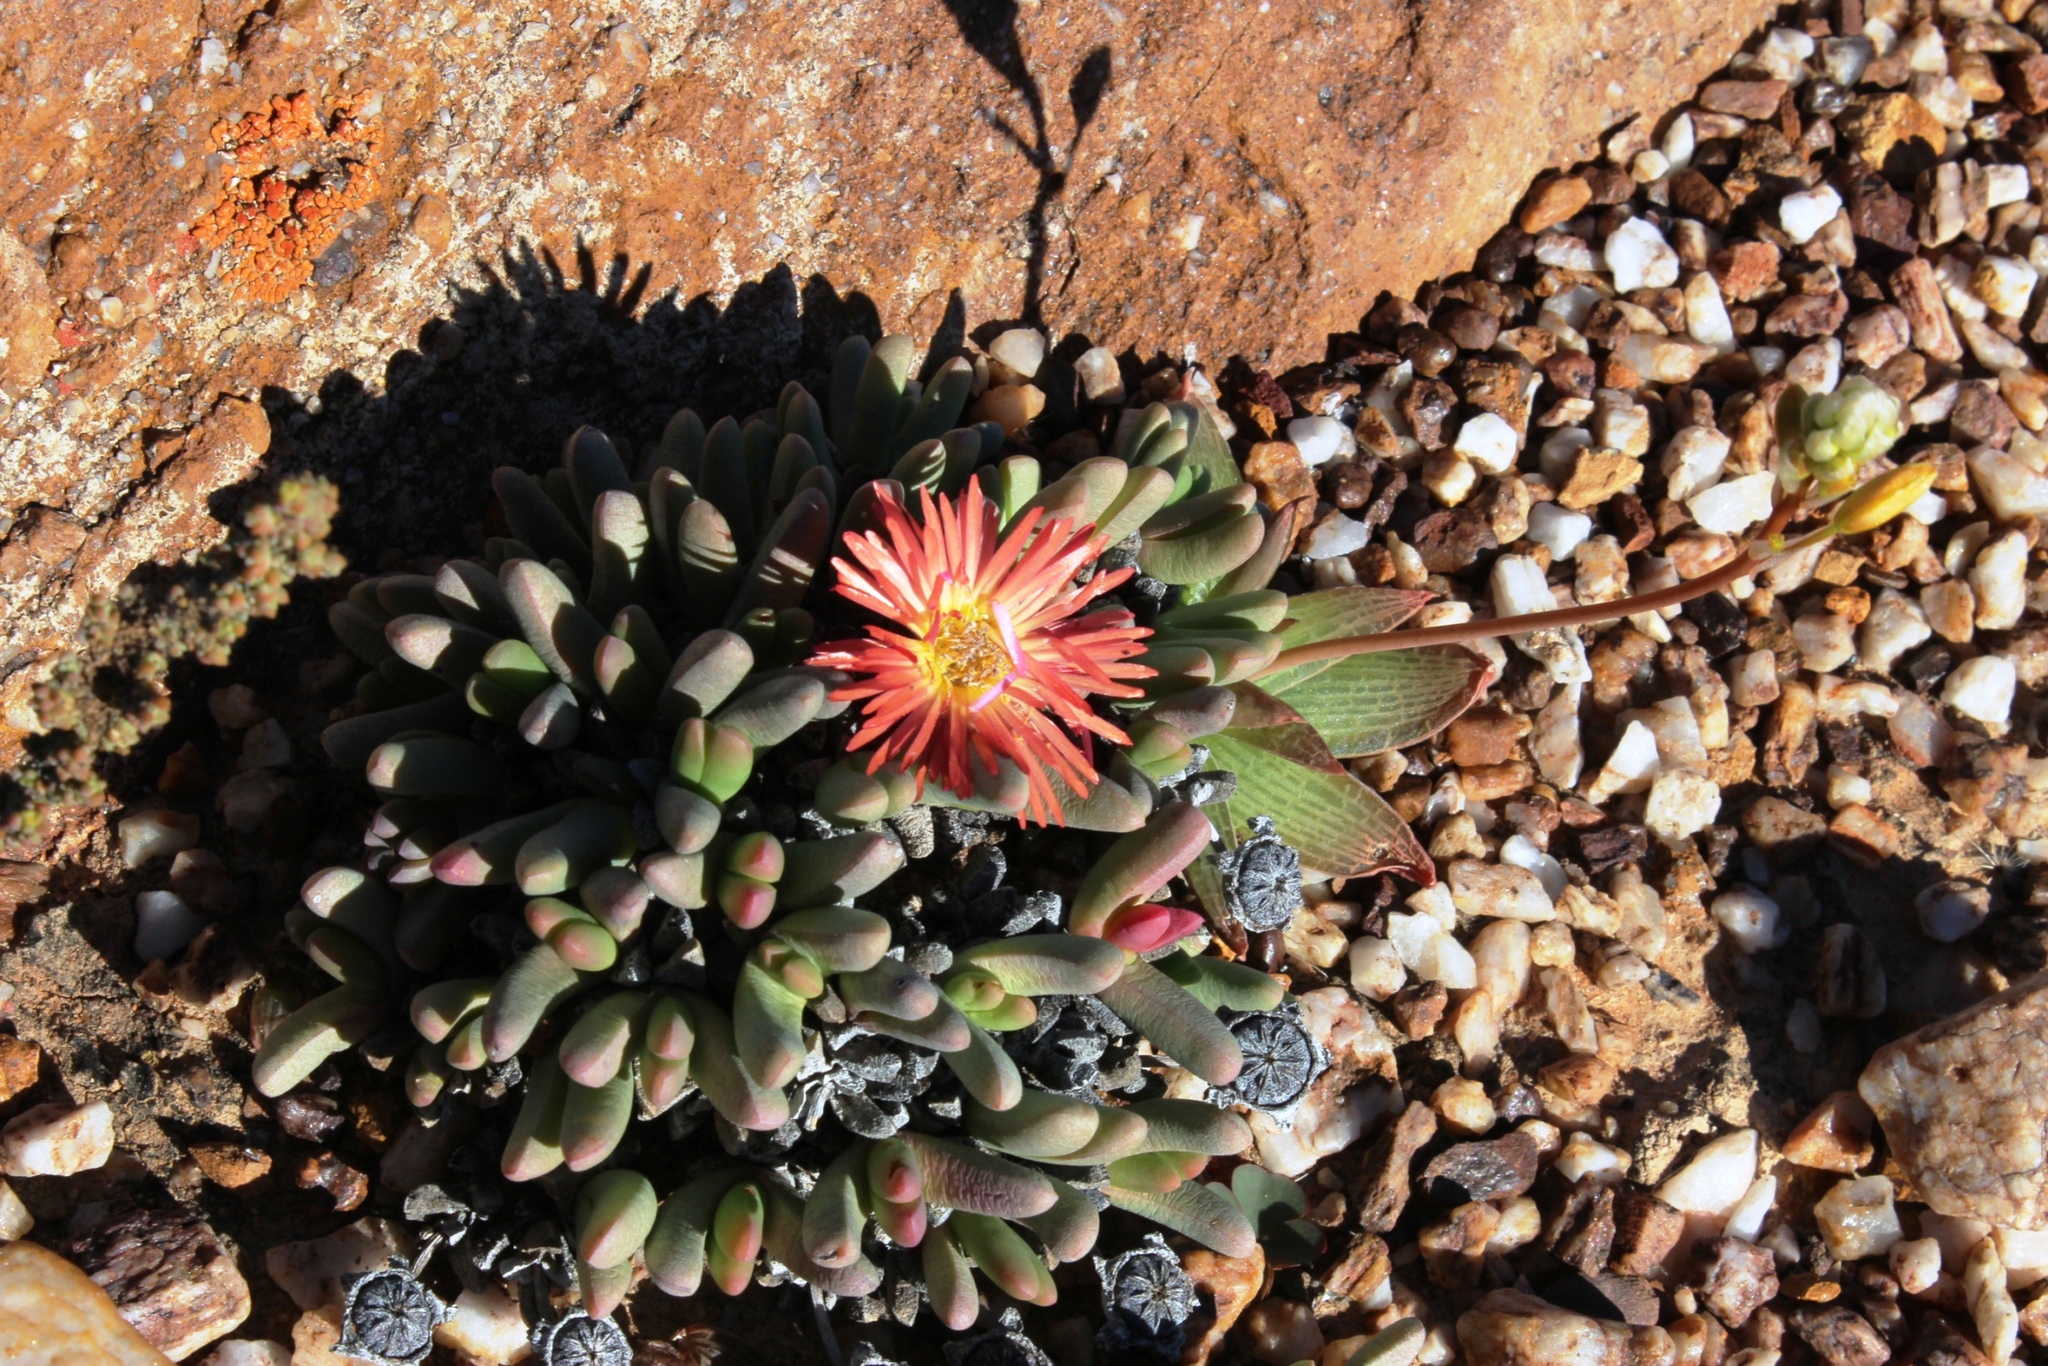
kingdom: Plantae
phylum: Tracheophyta
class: Magnoliopsida
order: Caryophyllales
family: Aizoaceae
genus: Cephalophyllum
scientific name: Cephalophyllum spissum
